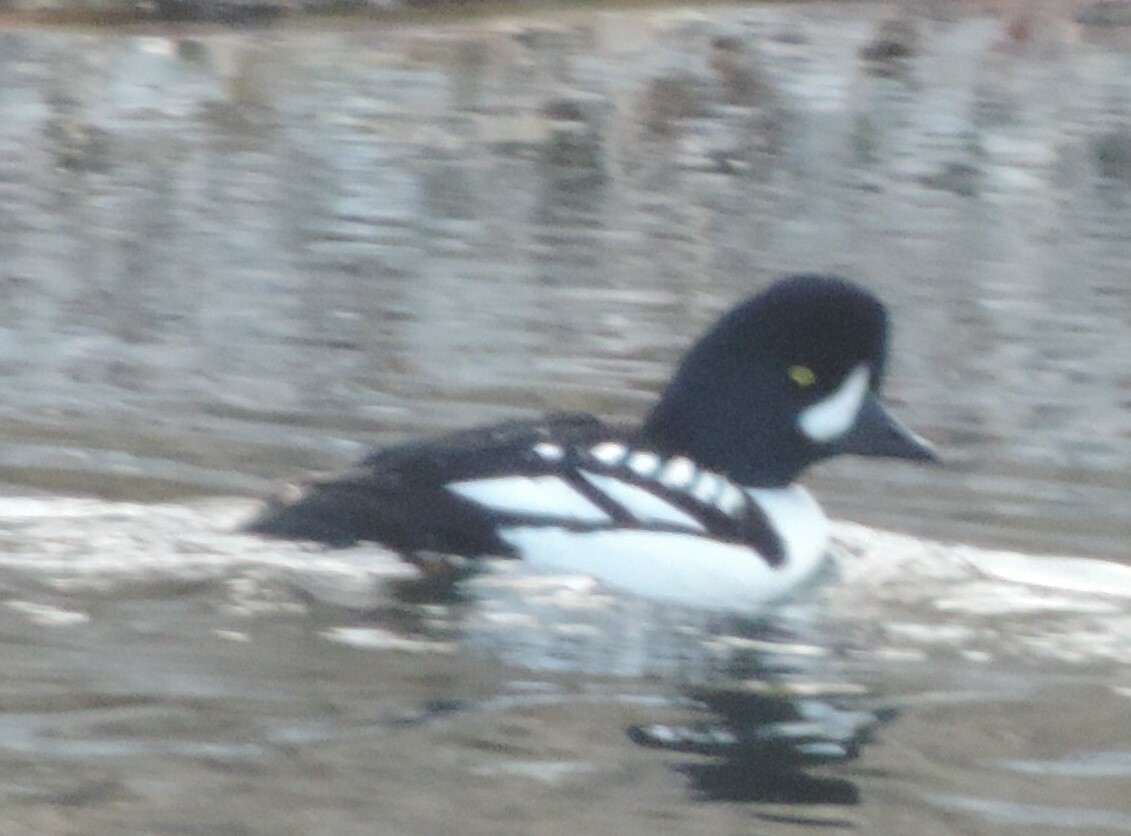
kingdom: Animalia
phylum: Chordata
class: Aves
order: Anseriformes
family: Anatidae
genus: Bucephala
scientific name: Bucephala islandica
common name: Barrow's goldeneye
